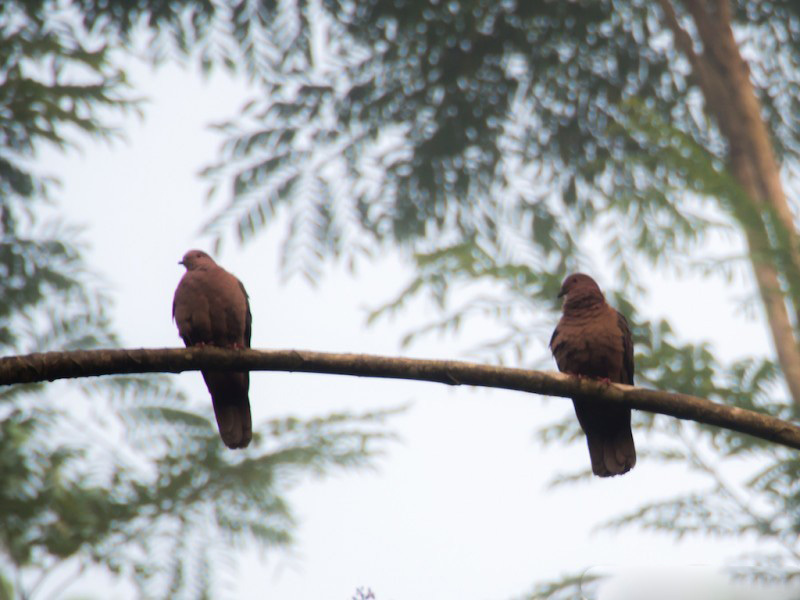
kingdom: Animalia
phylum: Chordata
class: Aves
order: Columbiformes
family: Columbidae
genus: Patagioenas
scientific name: Patagioenas nigrirostris
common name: Short-billed pigeon
